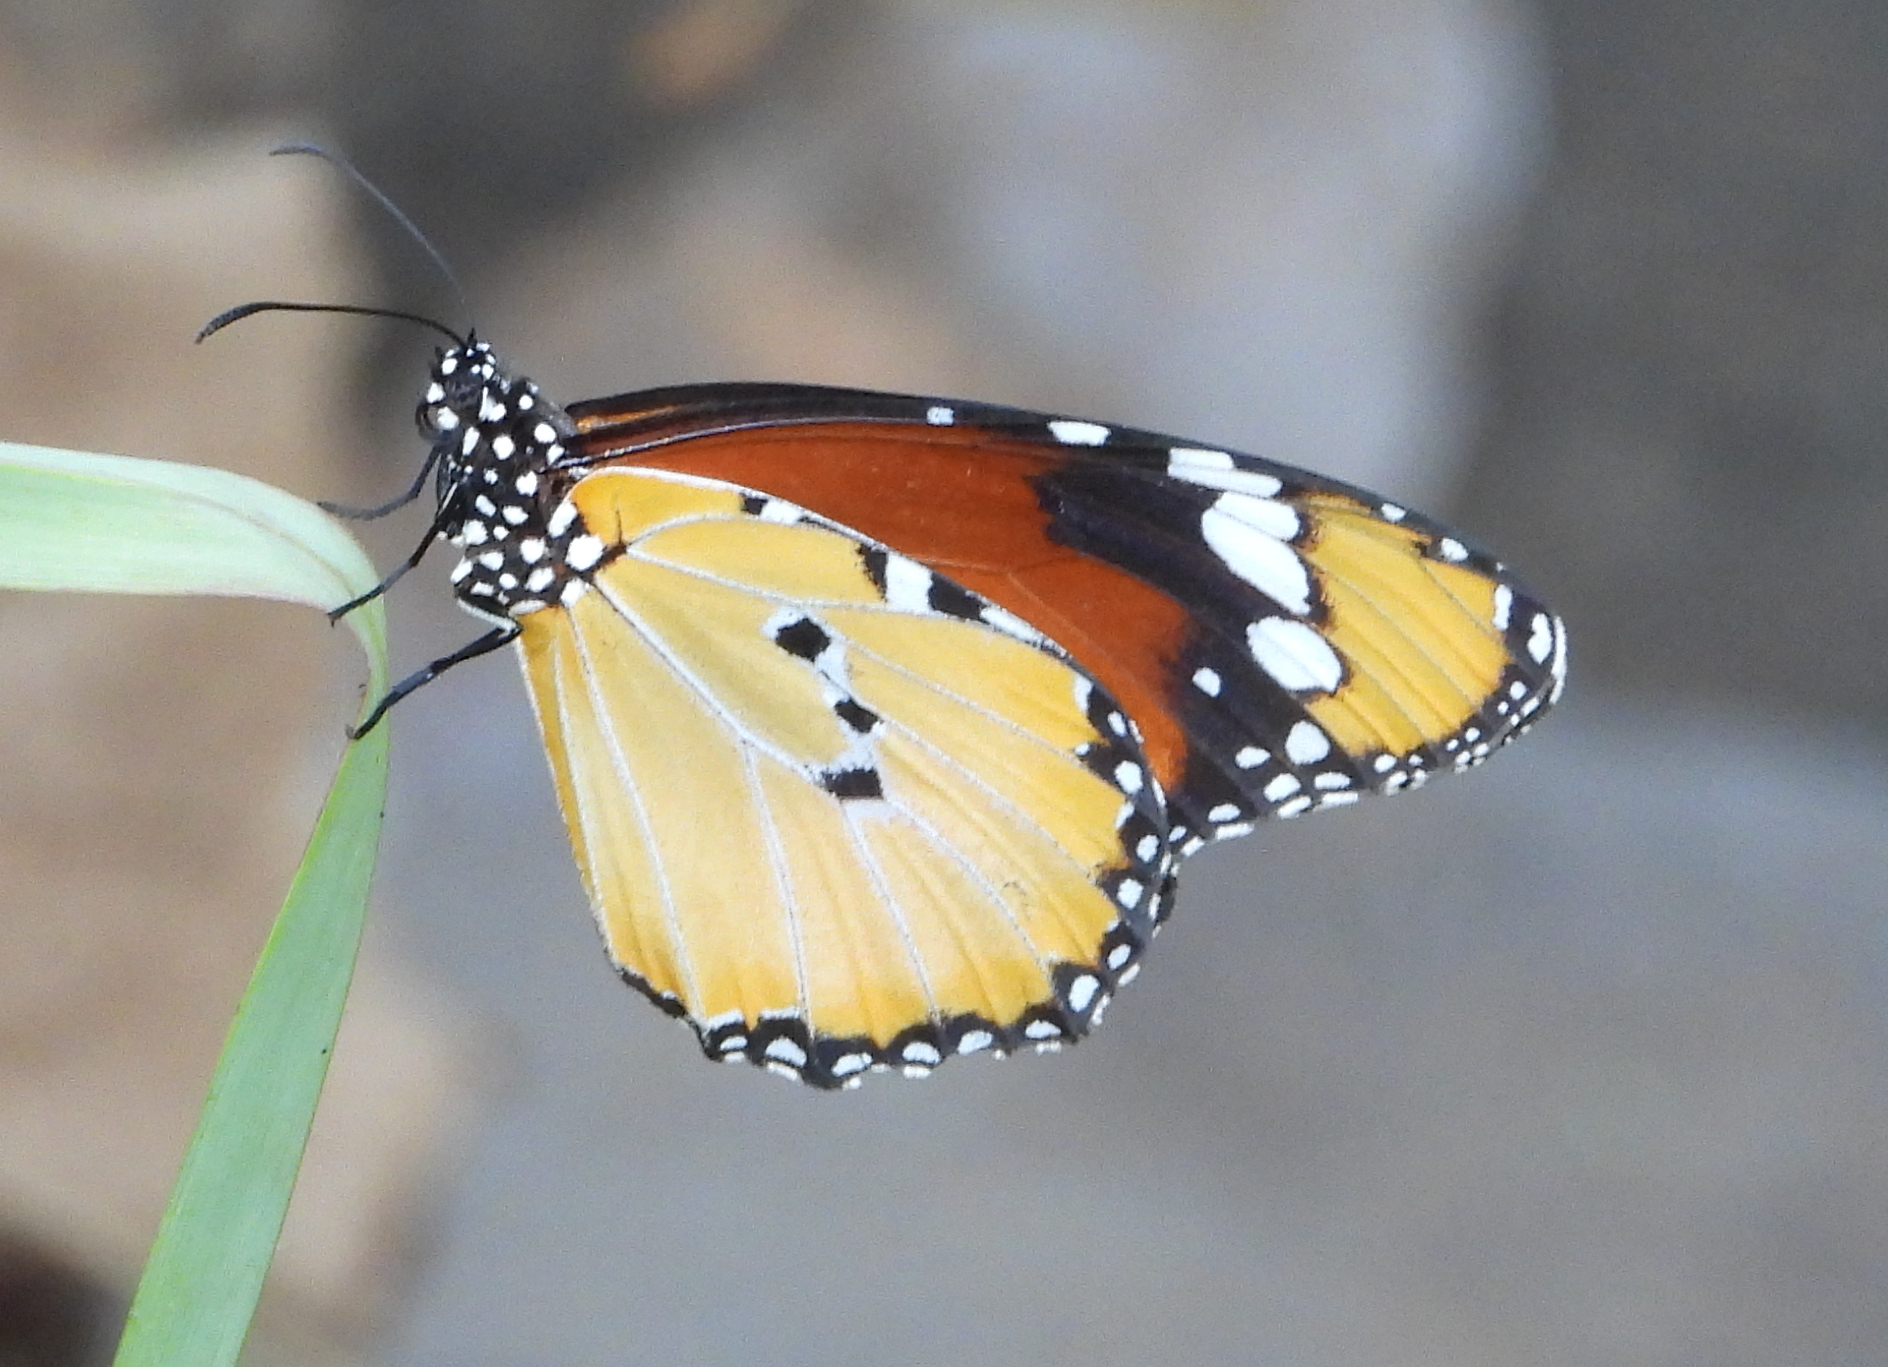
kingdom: Animalia
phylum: Arthropoda
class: Insecta
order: Lepidoptera
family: Nymphalidae
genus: Danaus
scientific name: Danaus chrysippus
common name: Plain tiger
